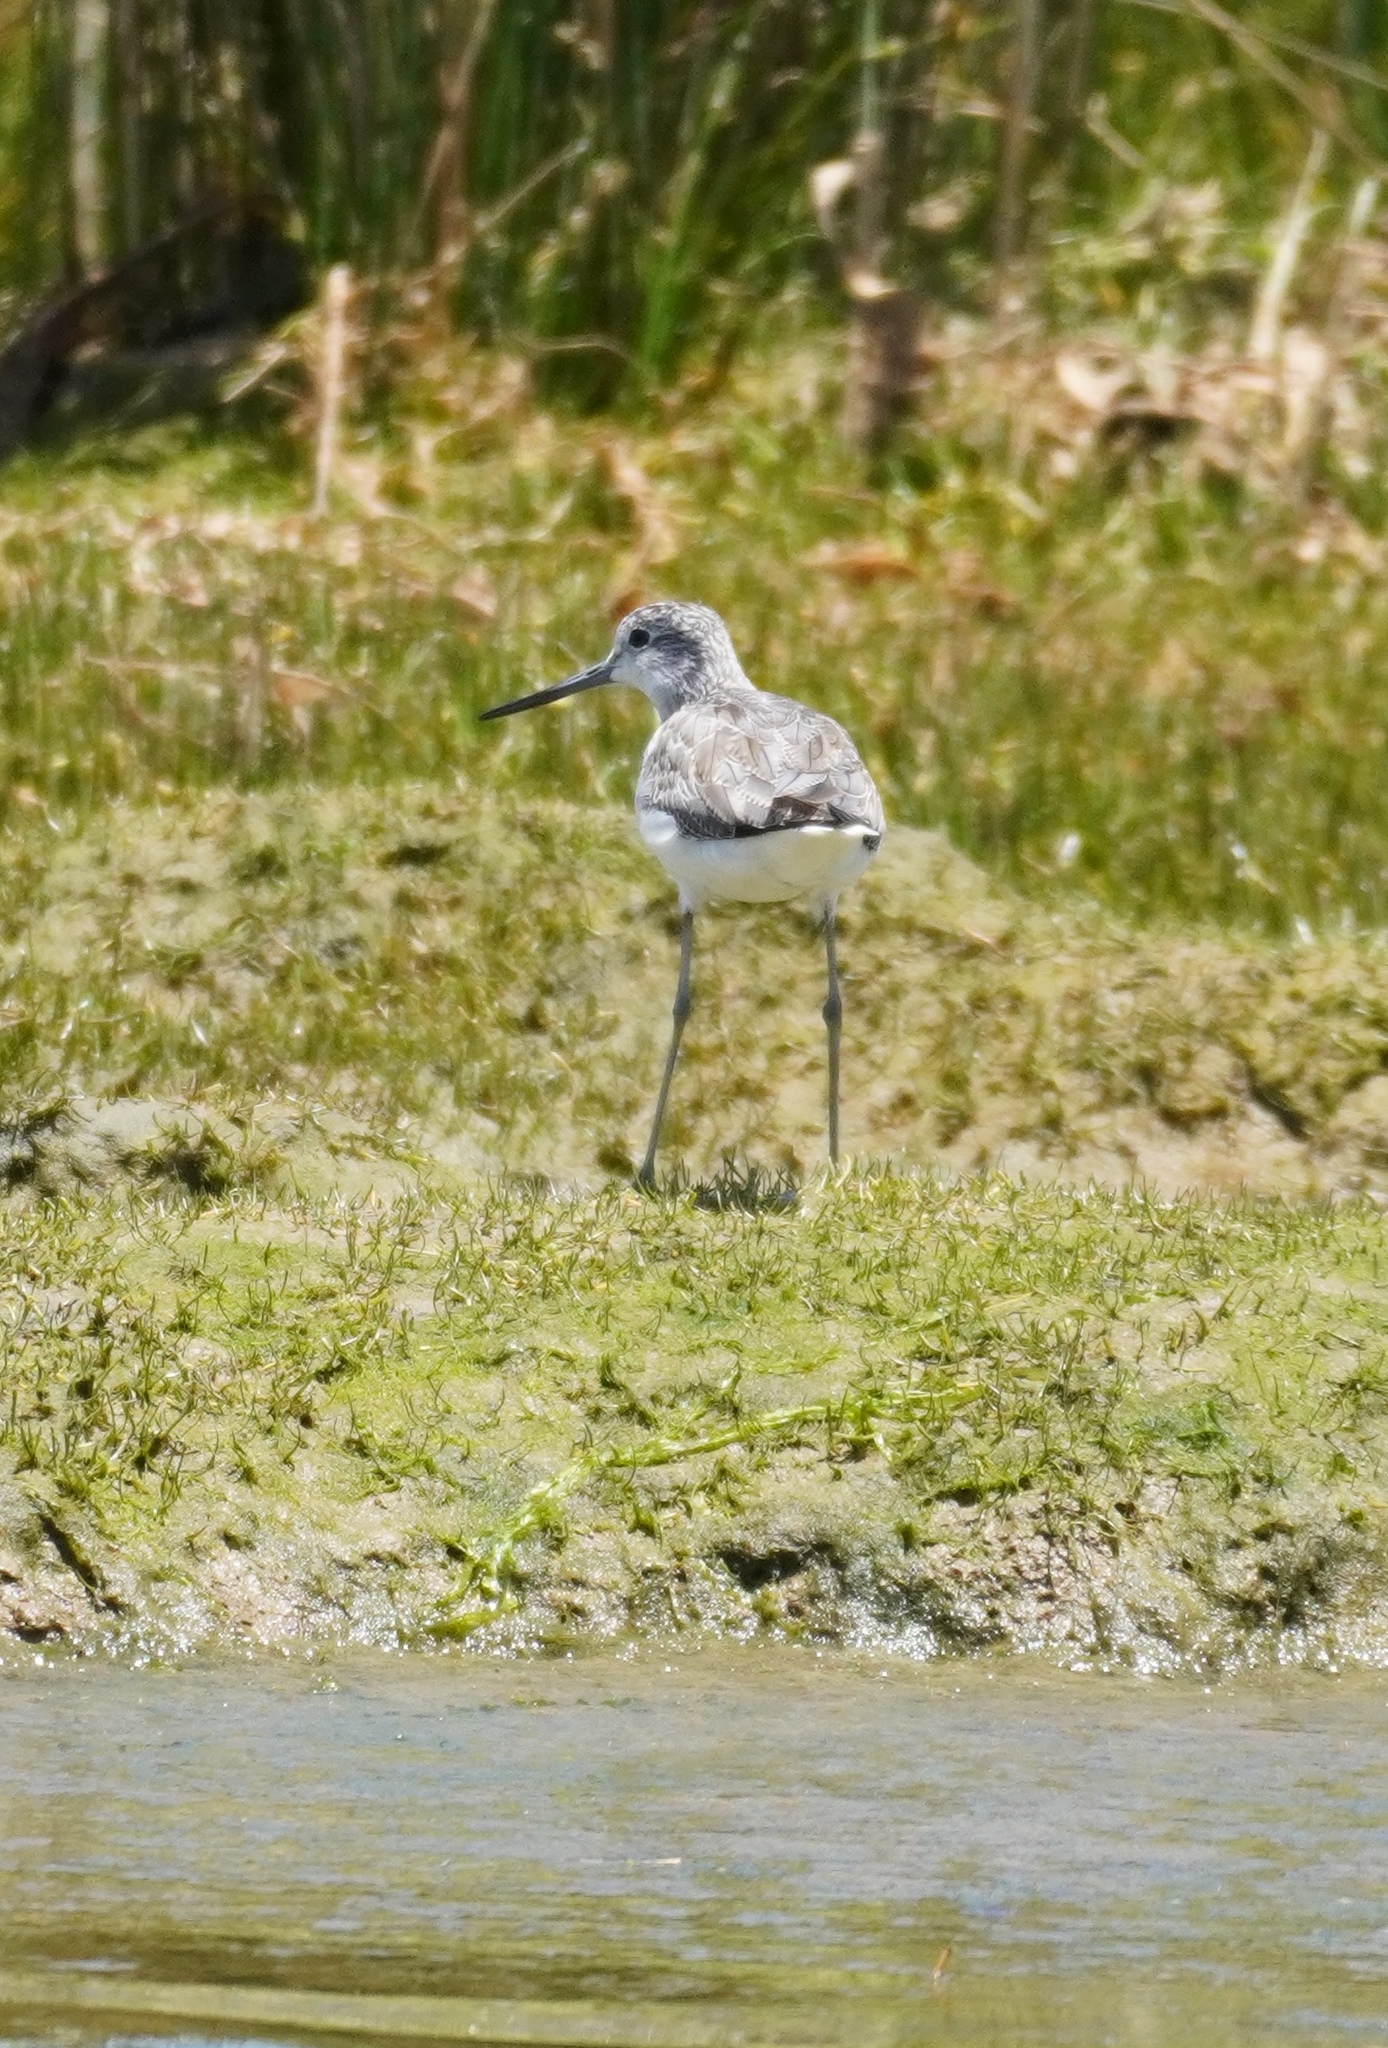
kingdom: Animalia
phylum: Chordata
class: Aves
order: Charadriiformes
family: Scolopacidae
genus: Tringa
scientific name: Tringa nebularia
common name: Common greenshank
